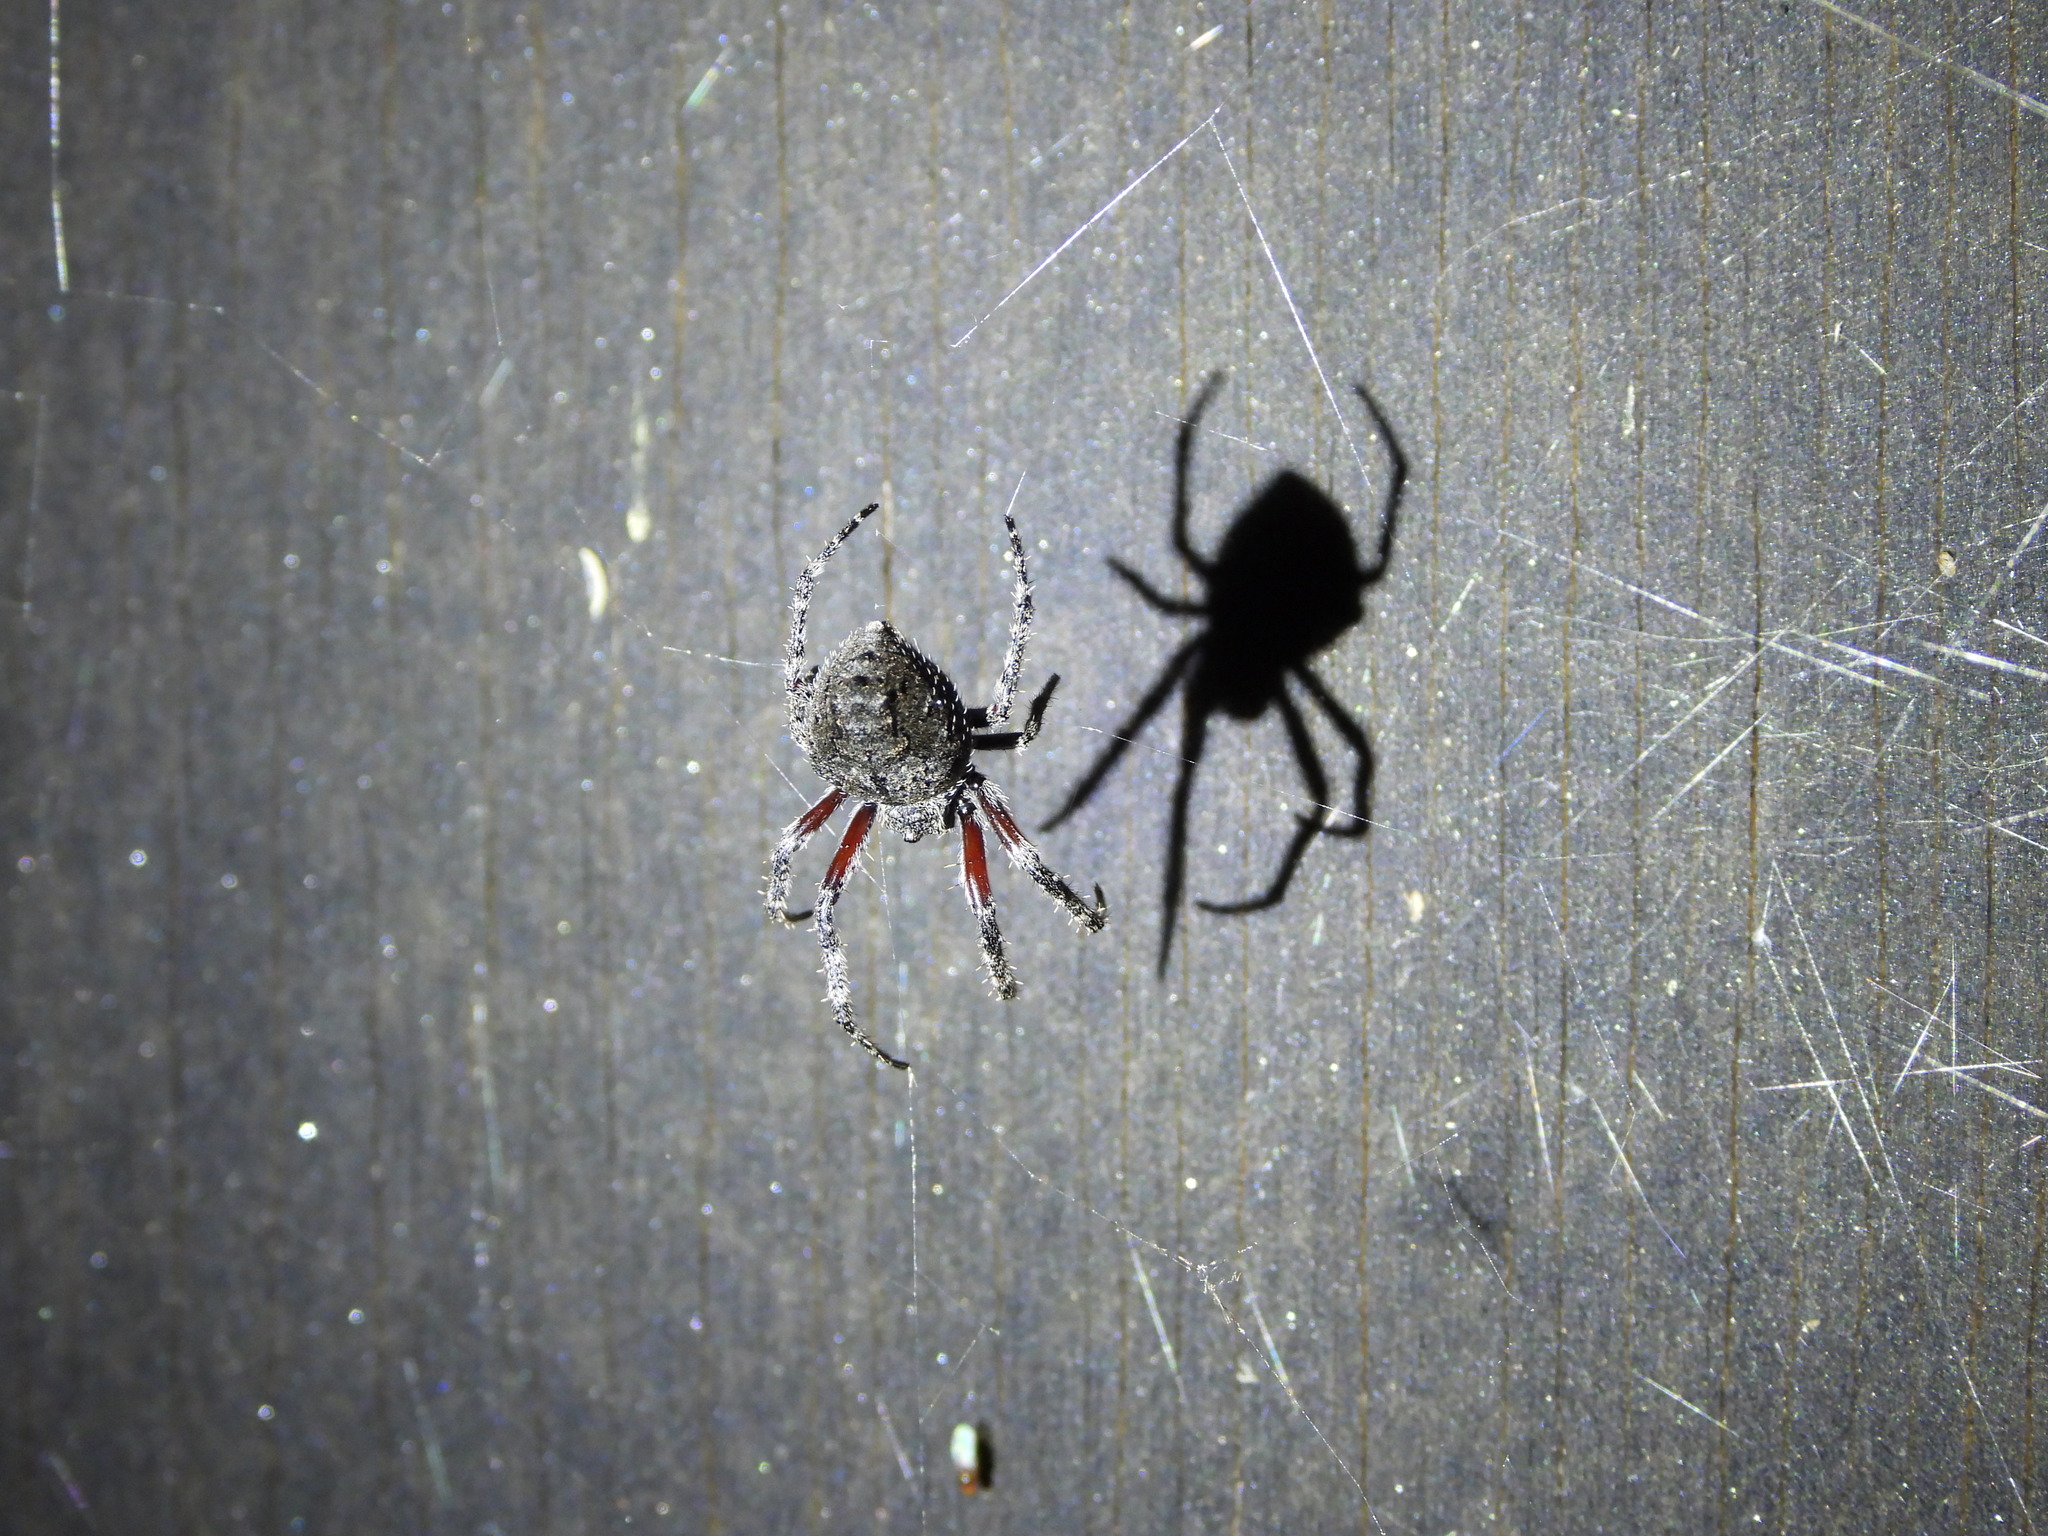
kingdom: Animalia
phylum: Arthropoda
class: Arachnida
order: Araneae
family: Araneidae
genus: Eriophora
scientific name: Eriophora pustulosa
